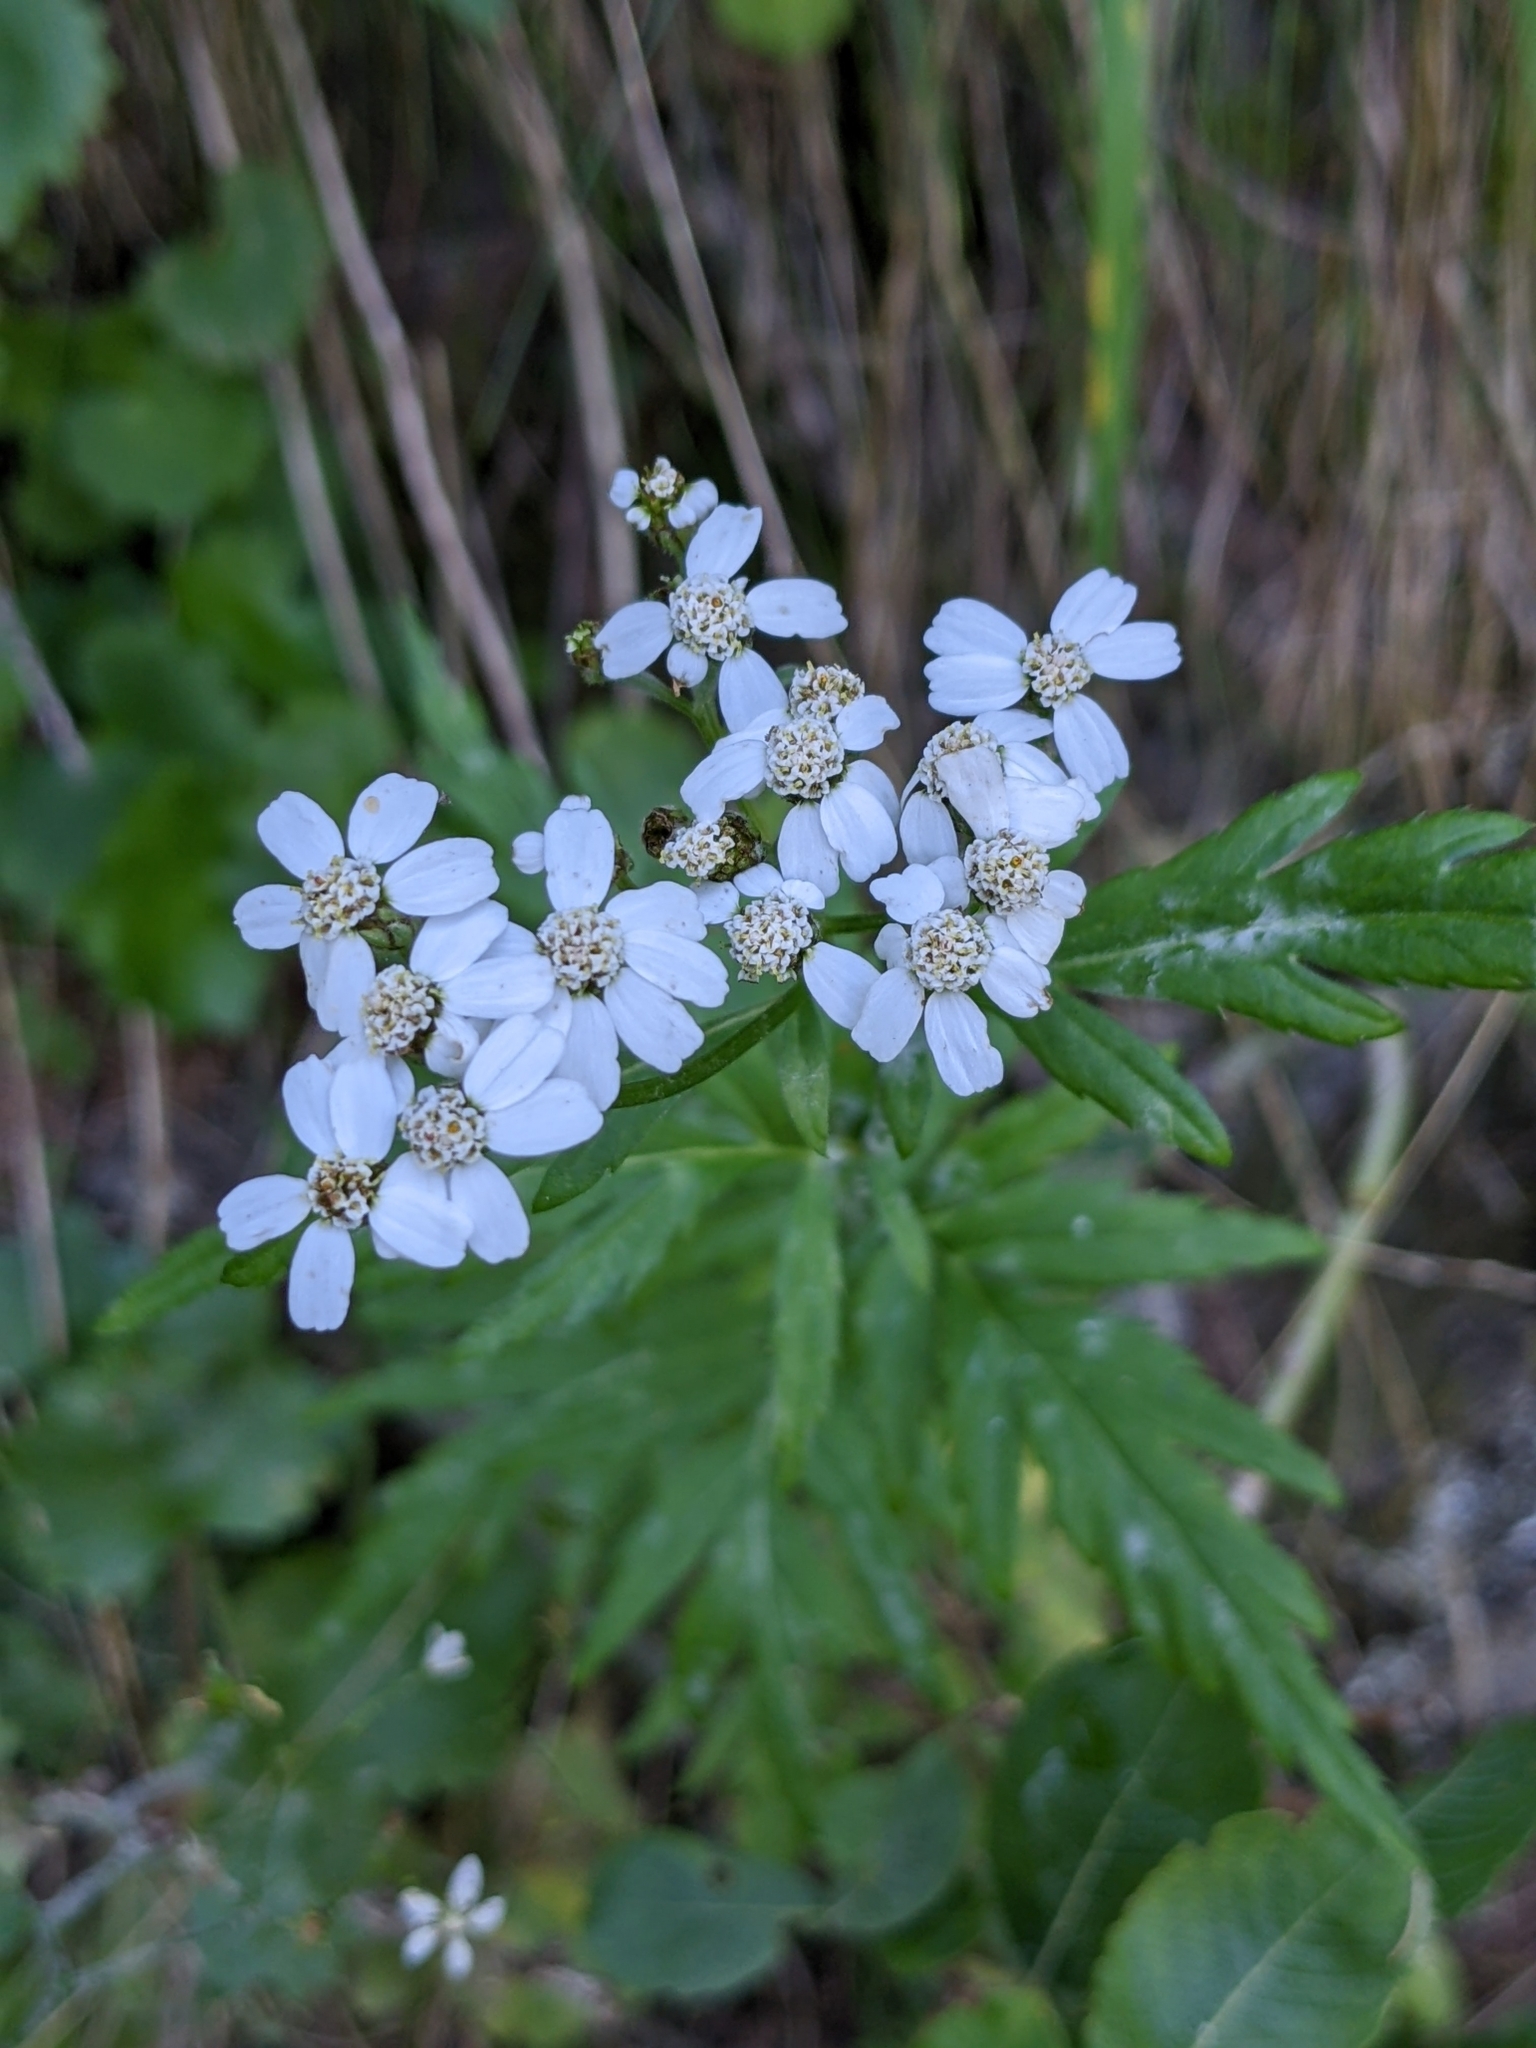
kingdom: Plantae
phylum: Tracheophyta
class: Magnoliopsida
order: Asterales
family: Asteraceae
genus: Achillea
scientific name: Achillea macrophylla
